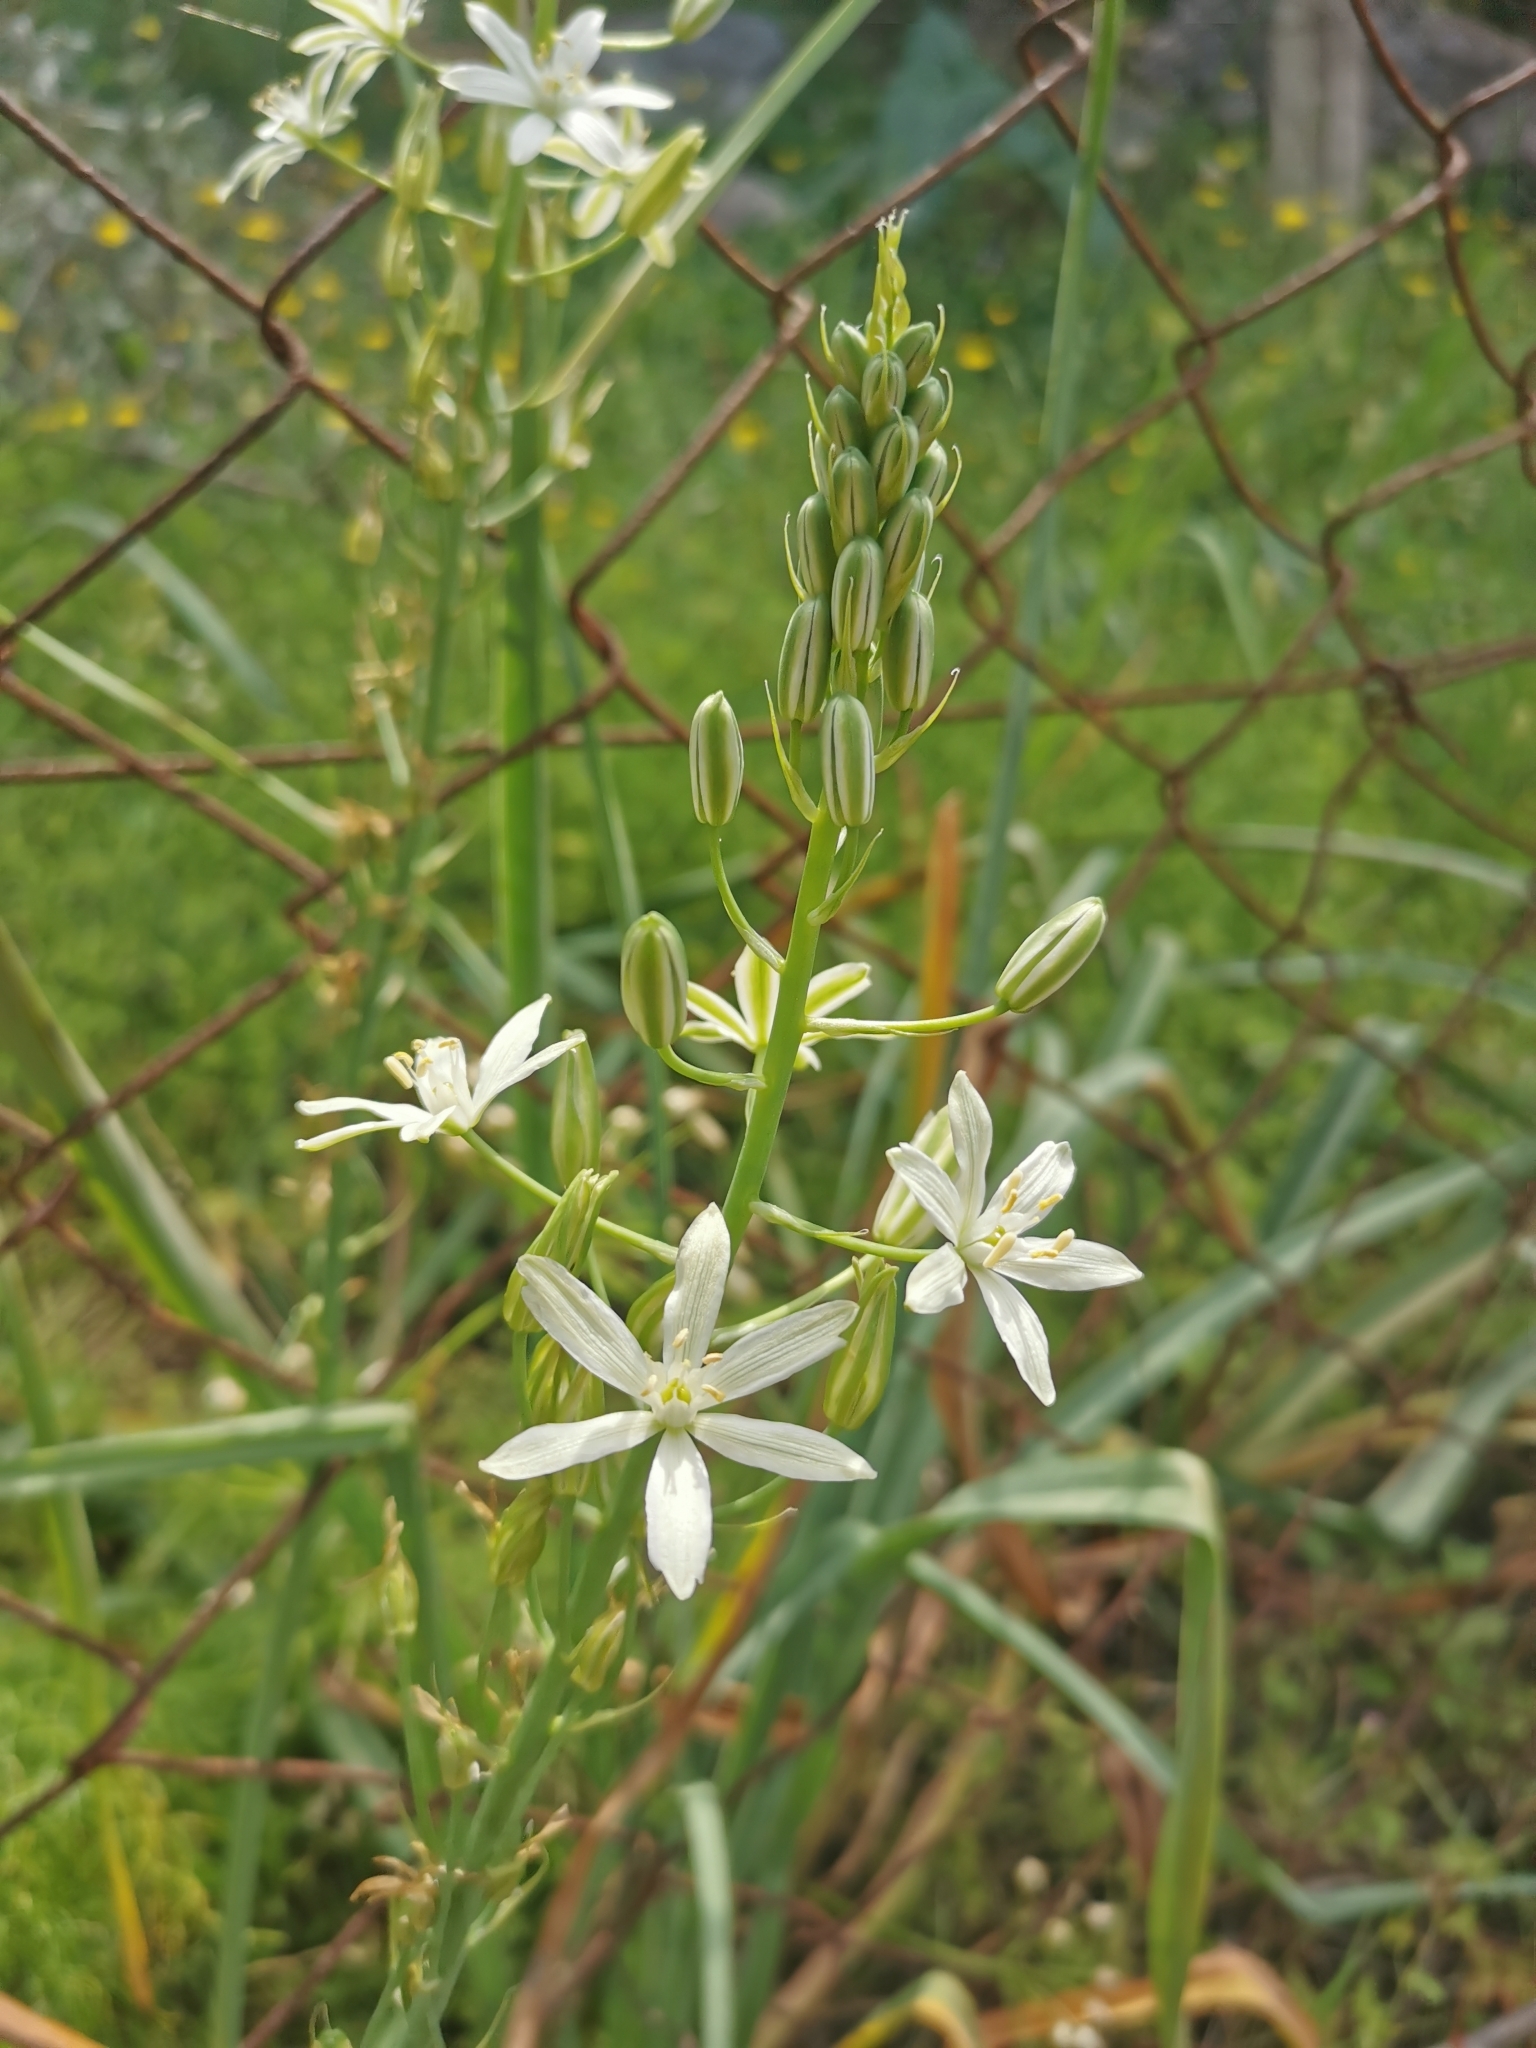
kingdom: Plantae
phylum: Tracheophyta
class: Liliopsida
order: Asparagales
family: Asparagaceae
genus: Ornithogalum
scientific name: Ornithogalum narbonense
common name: Bath-asparagus
